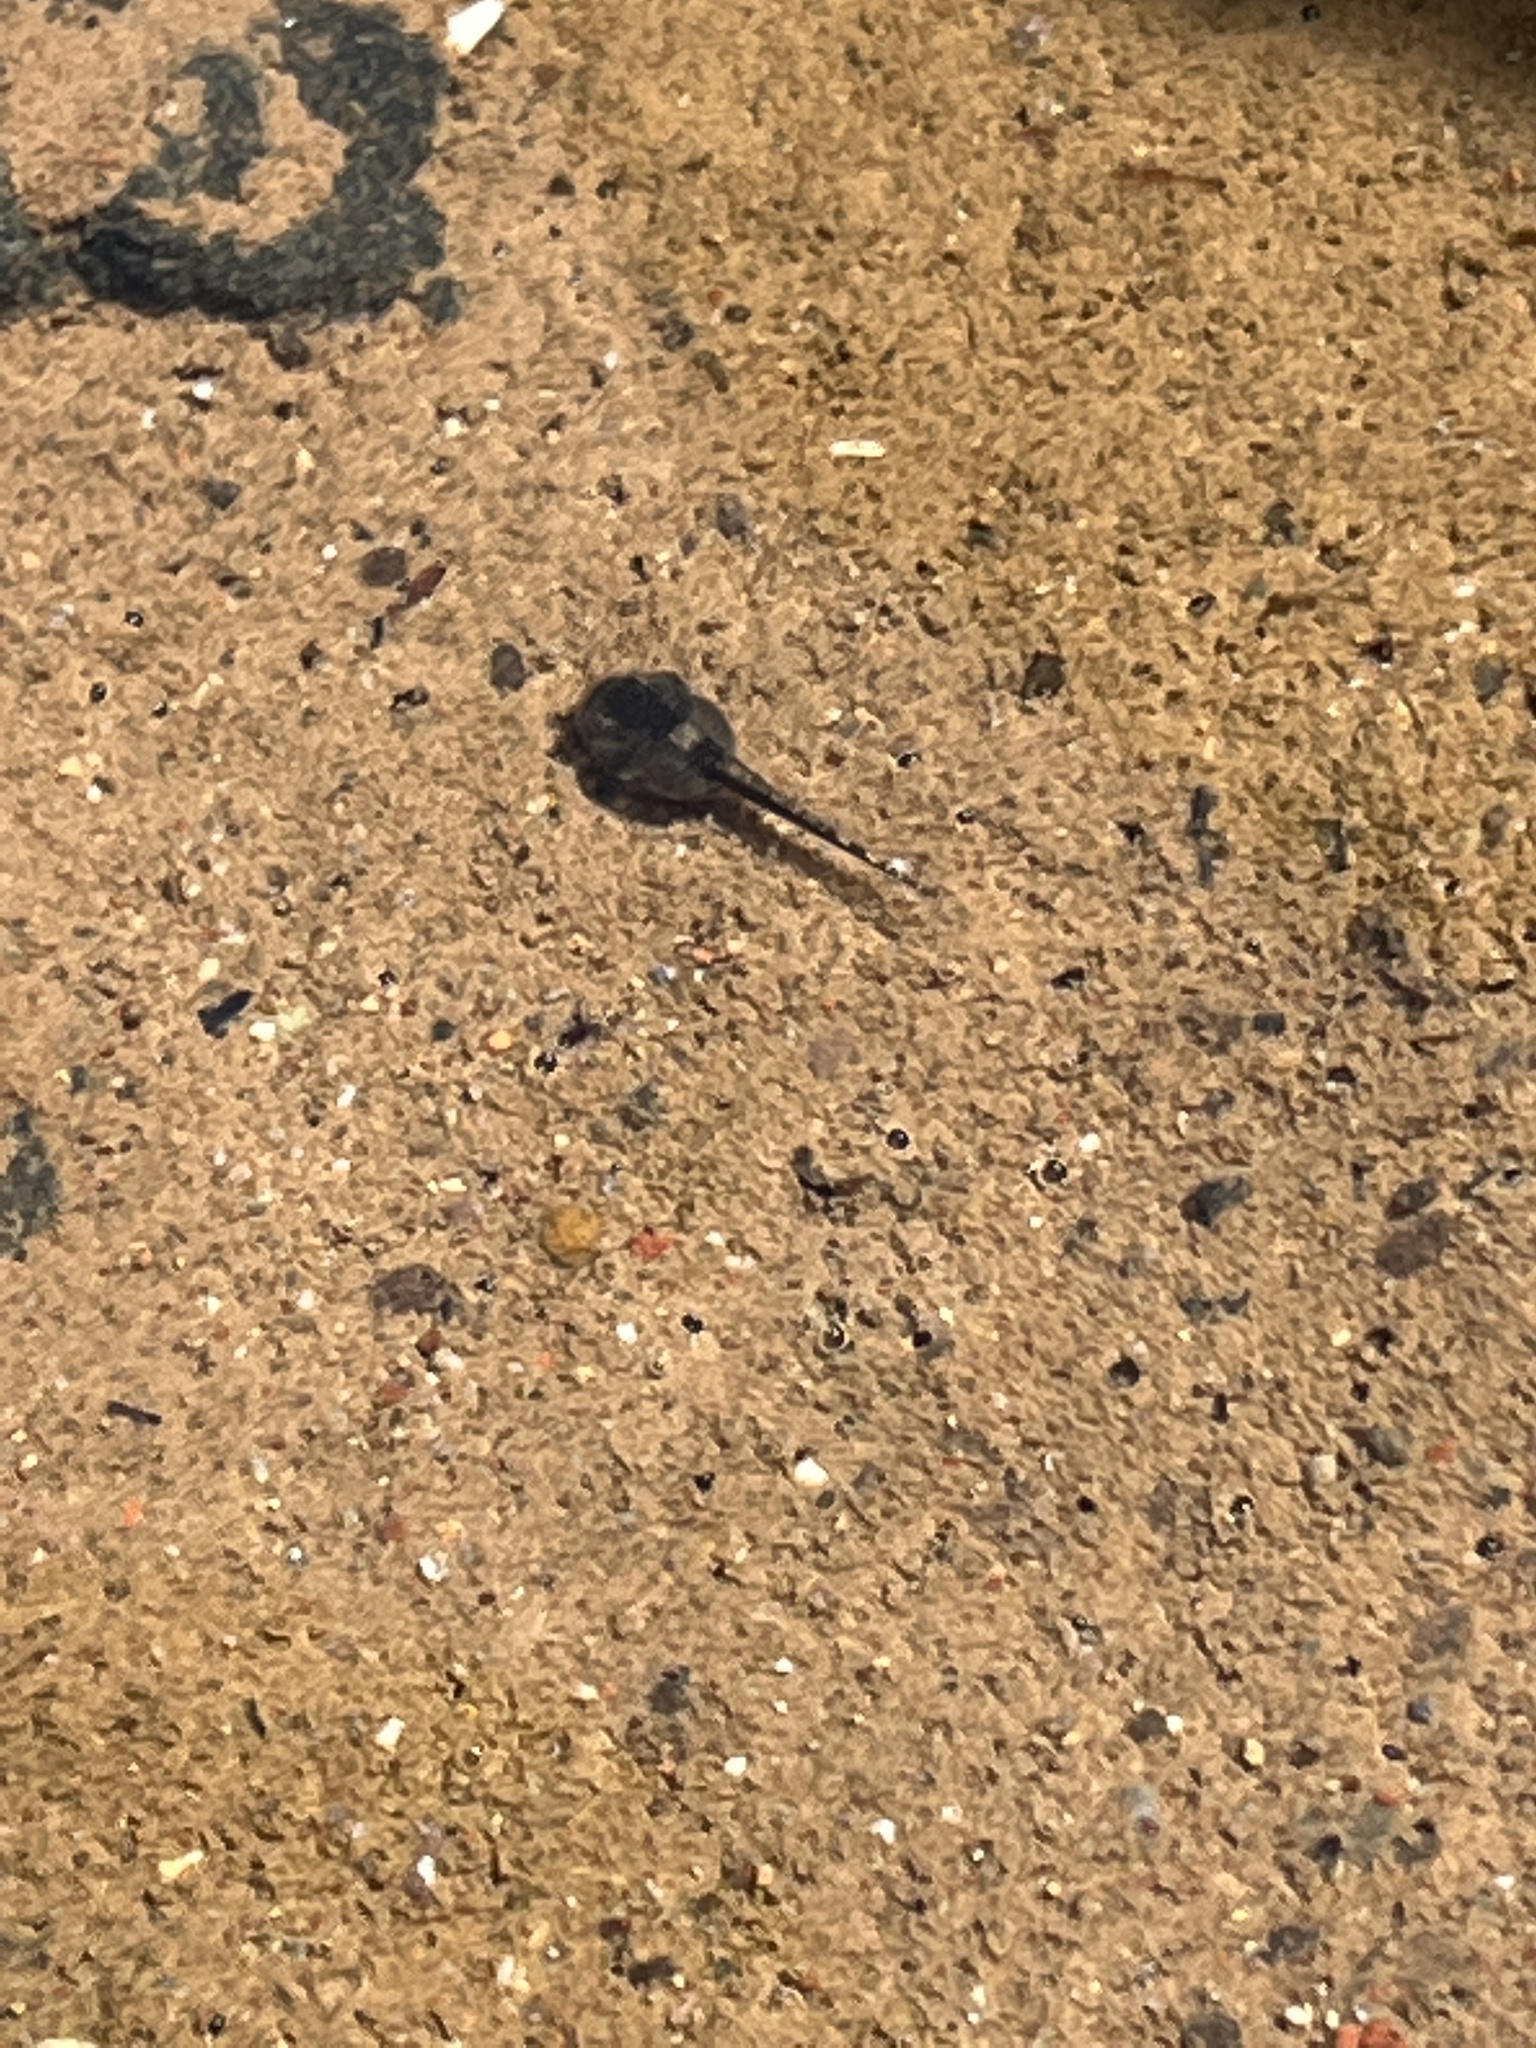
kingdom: Animalia
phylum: Chordata
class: Amphibia
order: Anura
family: Bufonidae
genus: Sclerophrys
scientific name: Sclerophrys
